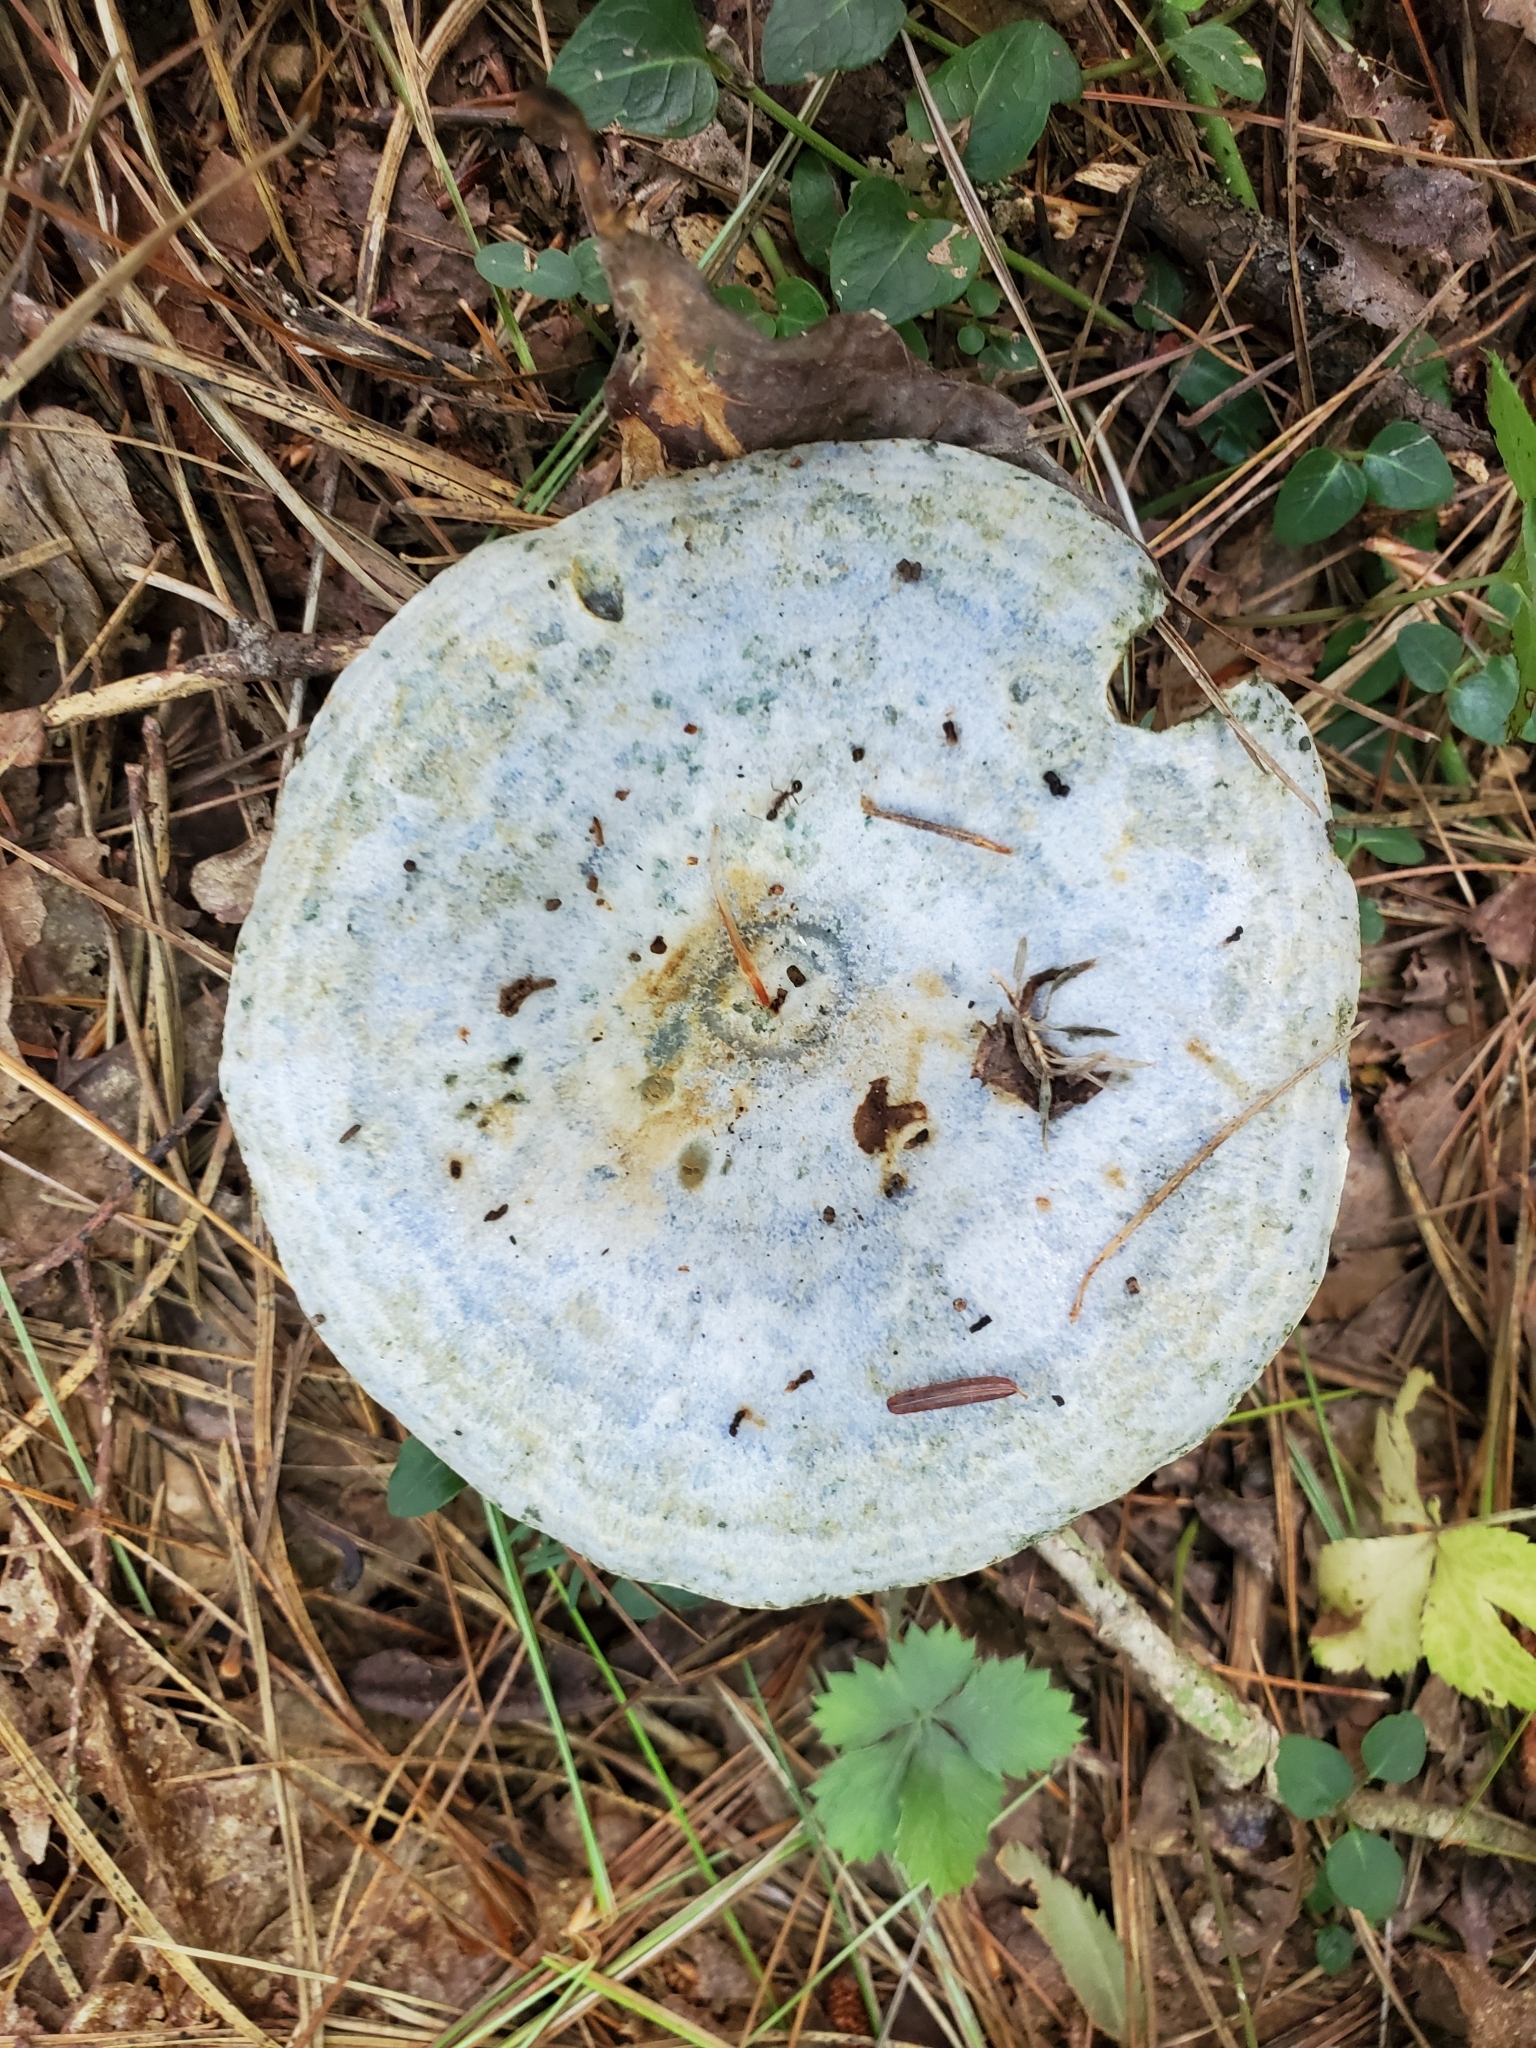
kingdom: Fungi
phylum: Basidiomycota
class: Agaricomycetes
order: Russulales
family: Russulaceae
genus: Lactarius
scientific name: Lactarius indigo
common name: Indigo milk cap
